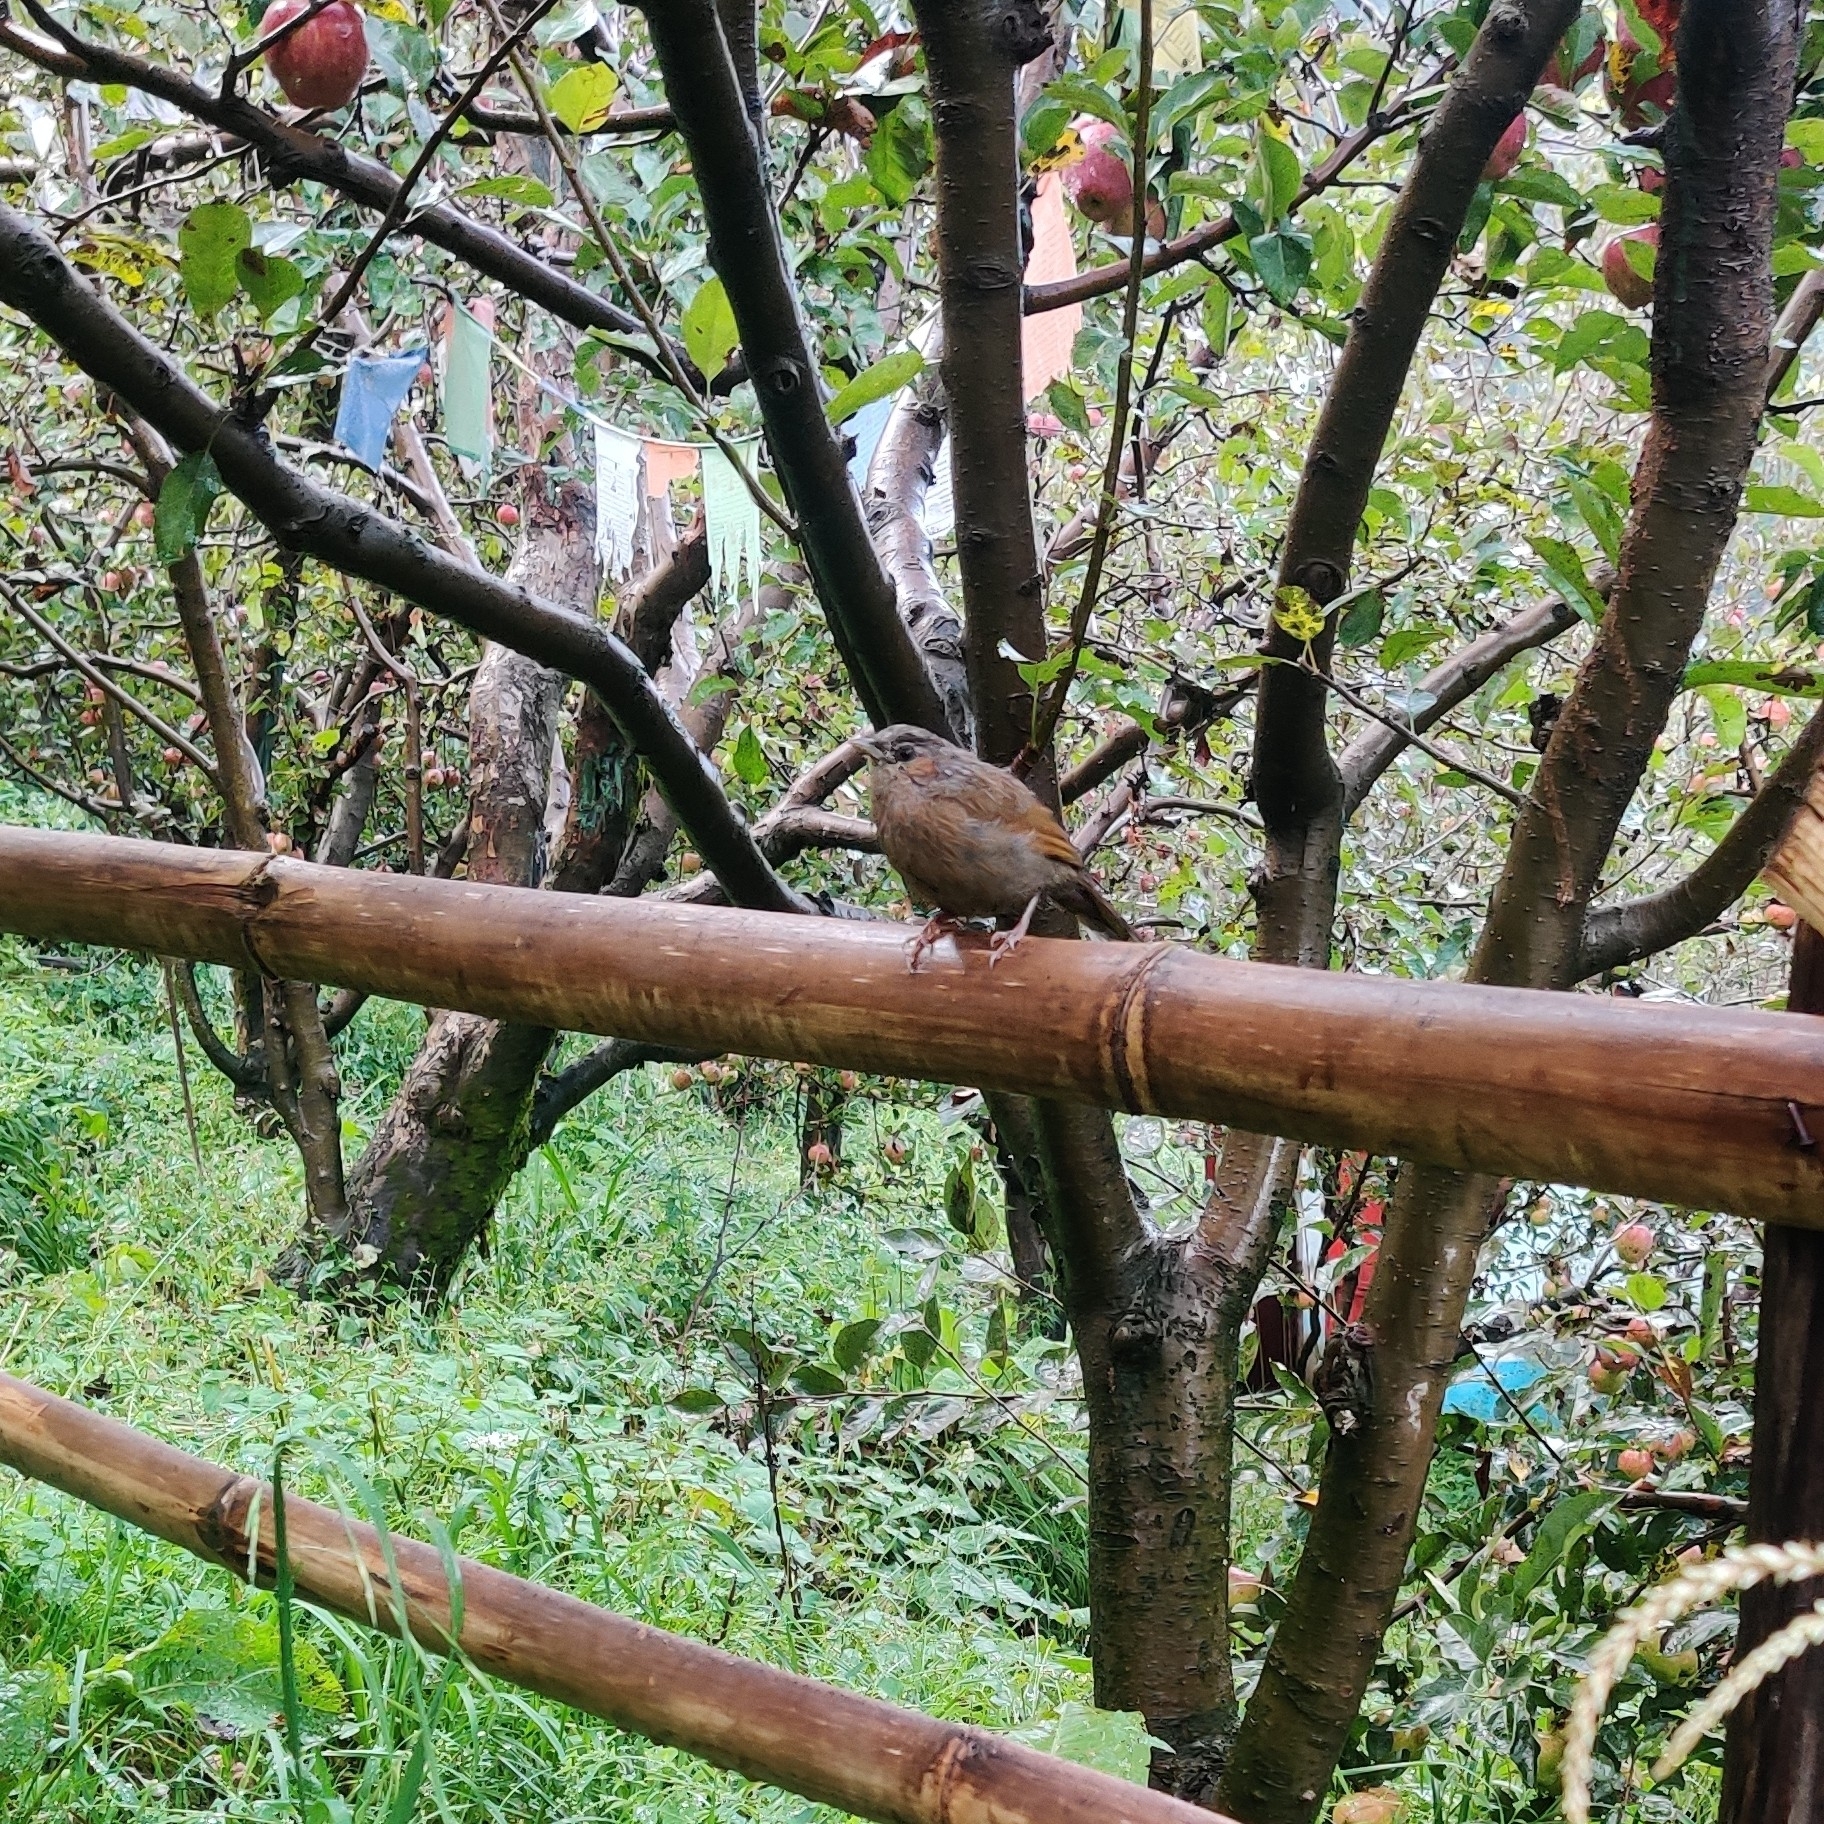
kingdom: Animalia
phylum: Chordata
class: Aves
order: Passeriformes
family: Leiothrichidae
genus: Trochalopteron
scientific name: Trochalopteron lineatum
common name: Streaked laughingthrush
